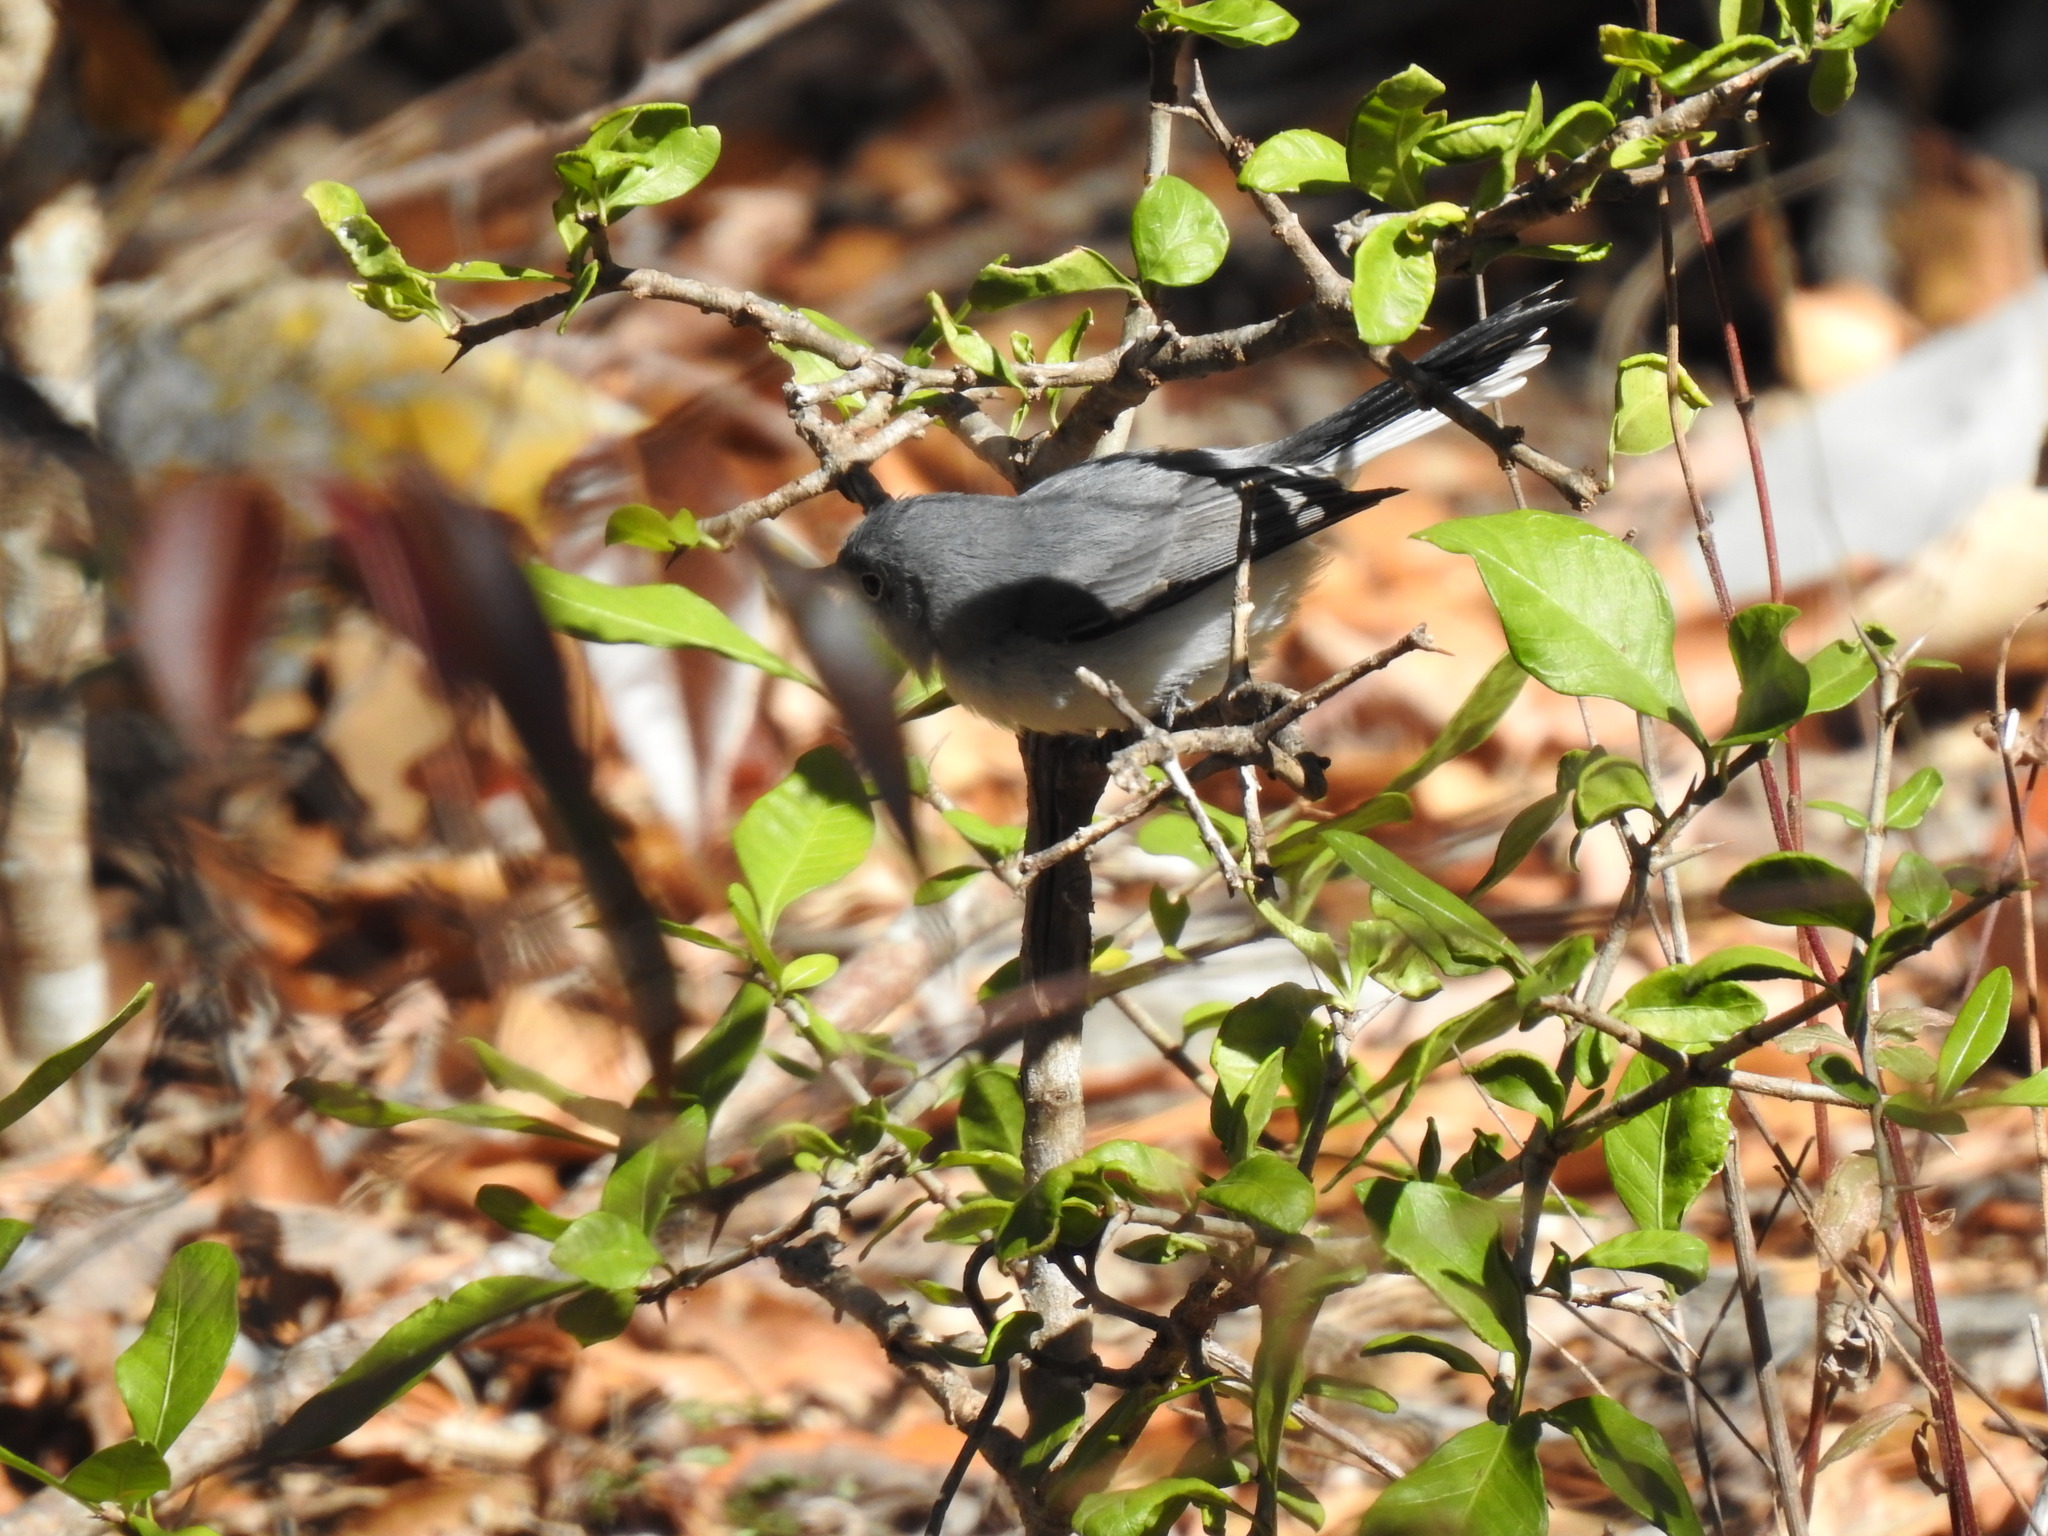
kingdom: Animalia
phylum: Chordata
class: Aves
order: Passeriformes
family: Polioptilidae
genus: Polioptila
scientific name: Polioptila caerulea
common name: Blue-gray gnatcatcher
